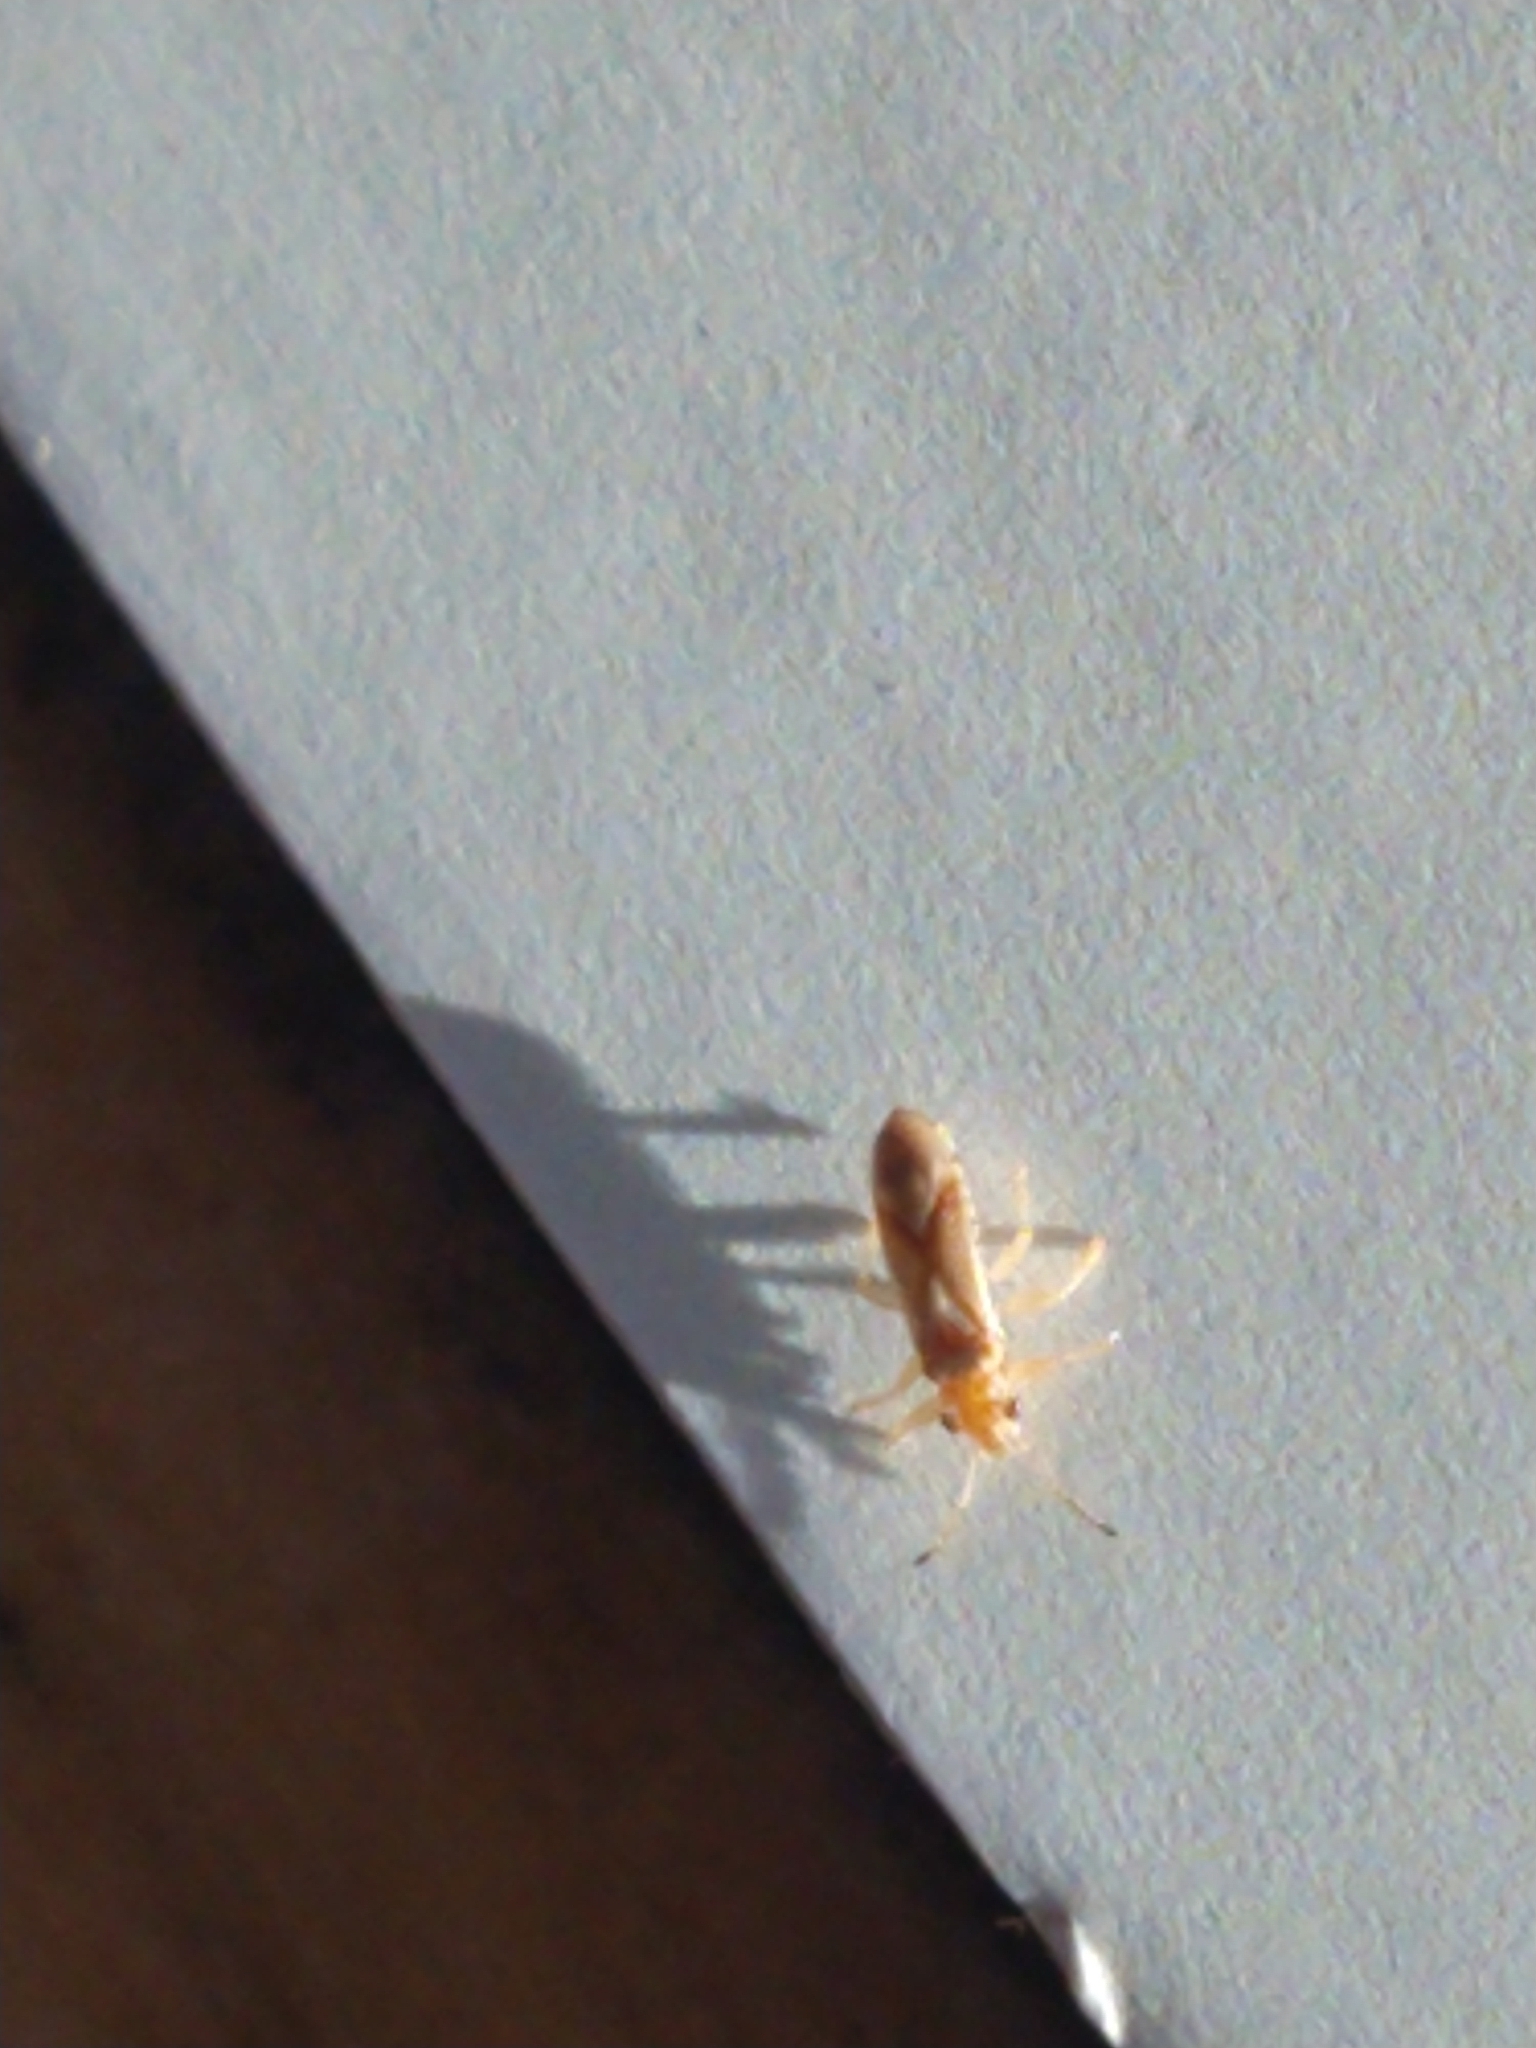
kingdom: Animalia
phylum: Arthropoda
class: Insecta
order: Hemiptera
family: Thaumastocoridae
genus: Thaumastocoris
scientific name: Thaumastocoris peregrinus
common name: Bronze bug
